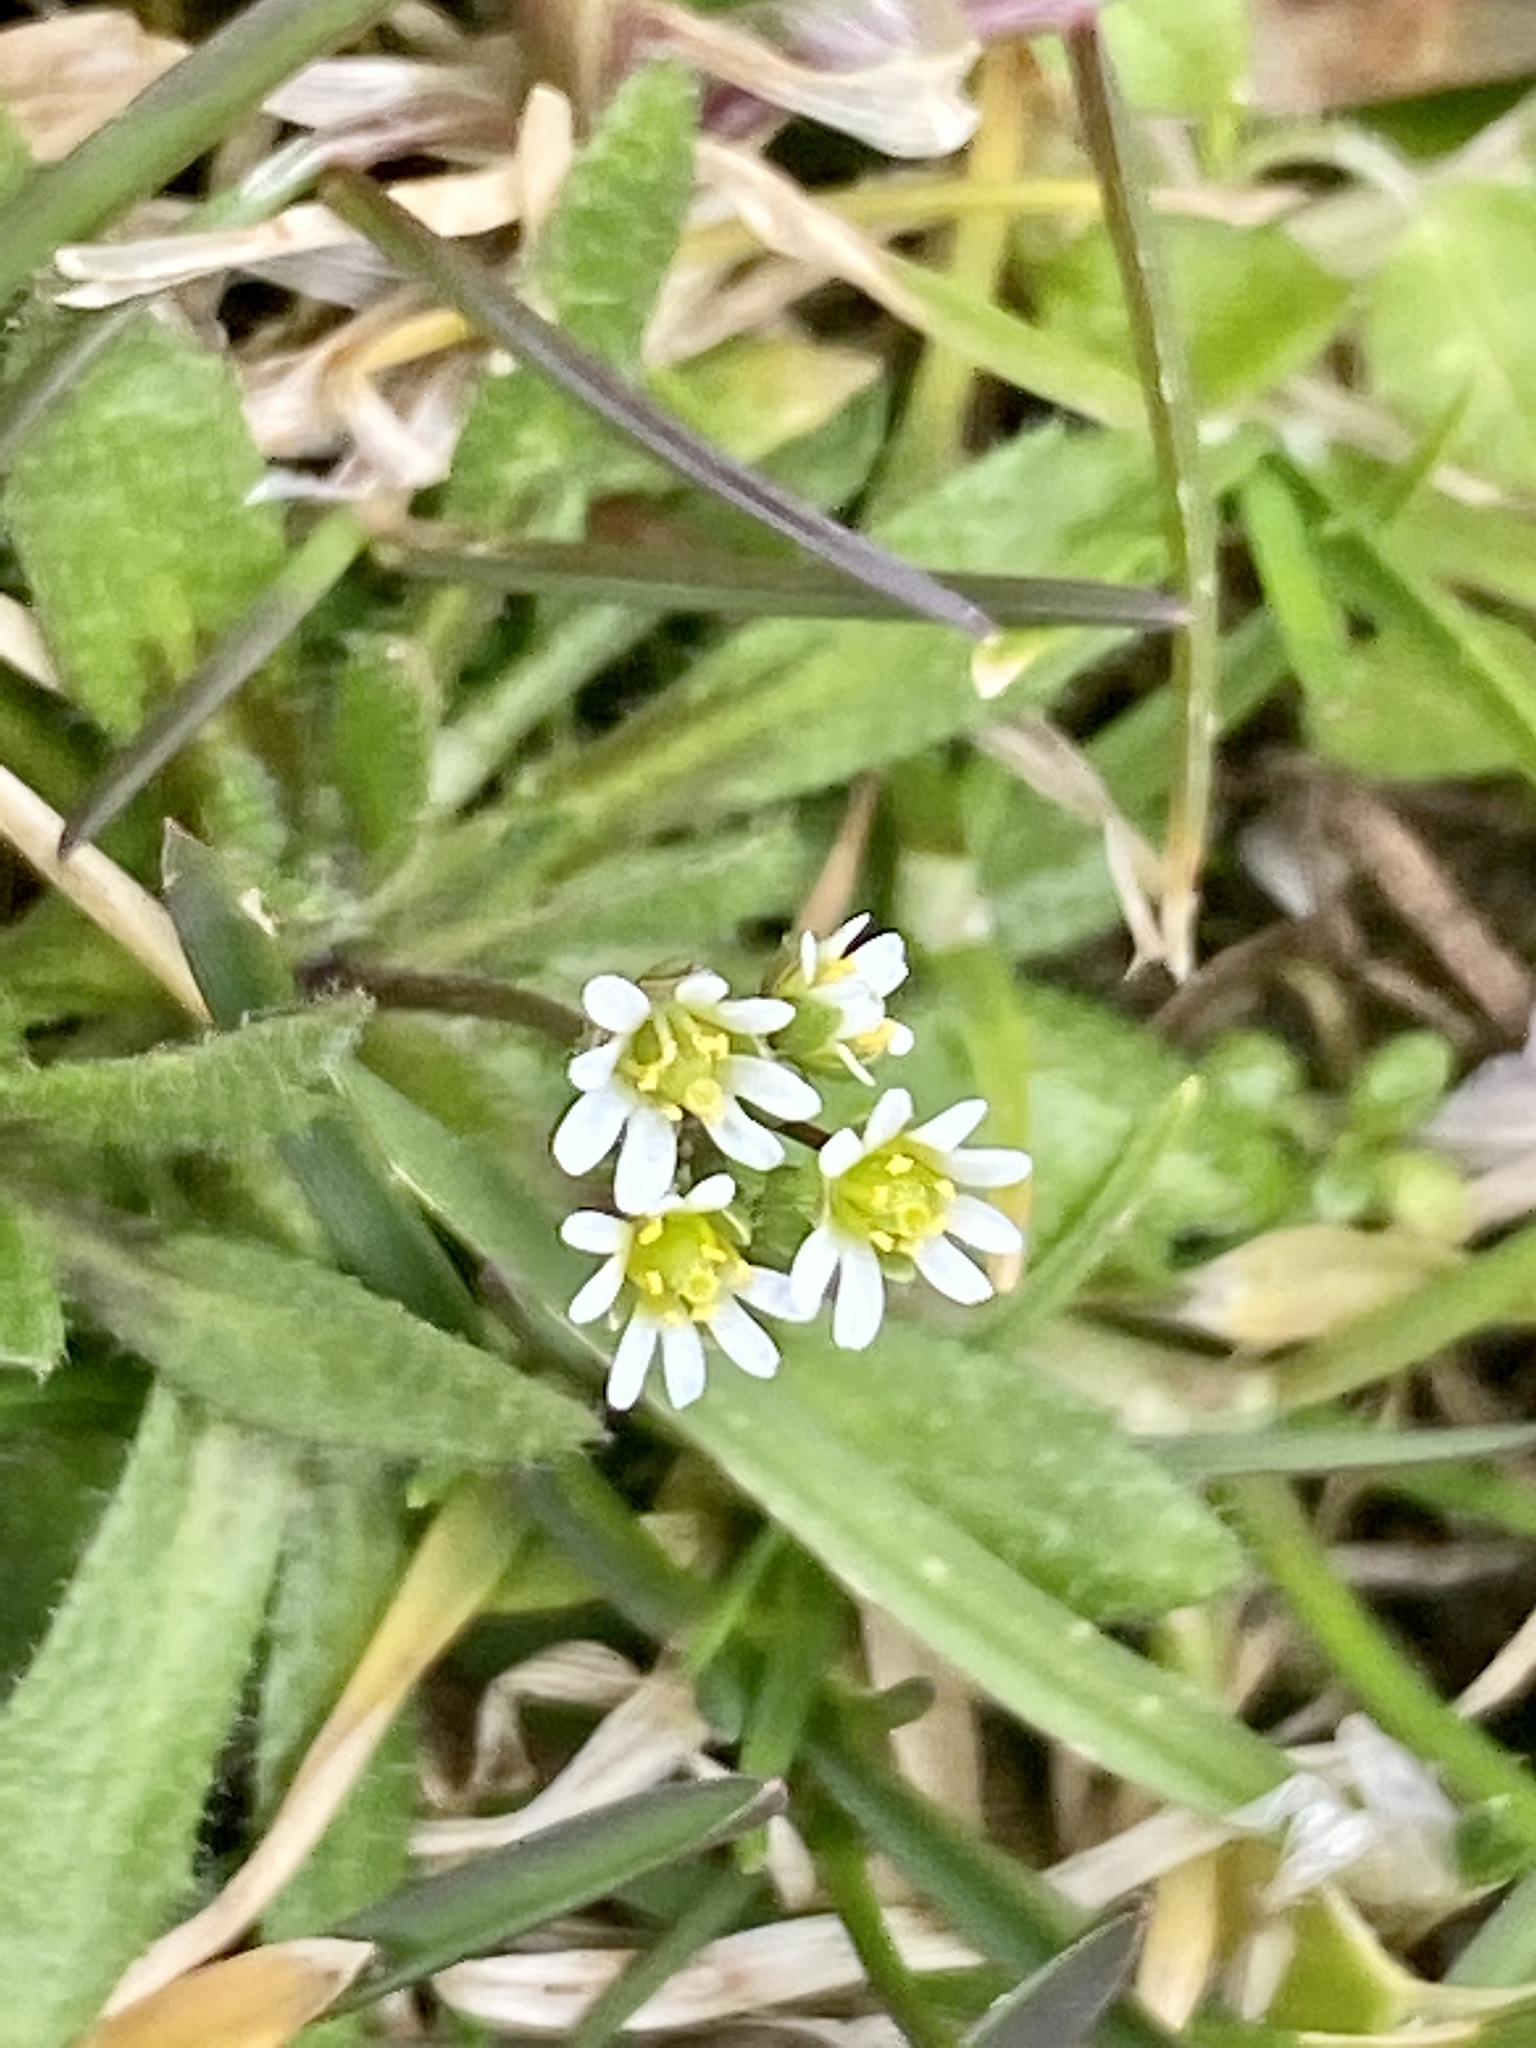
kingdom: Plantae
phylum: Tracheophyta
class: Magnoliopsida
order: Brassicales
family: Brassicaceae
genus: Draba
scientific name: Draba verna
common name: Spring draba
